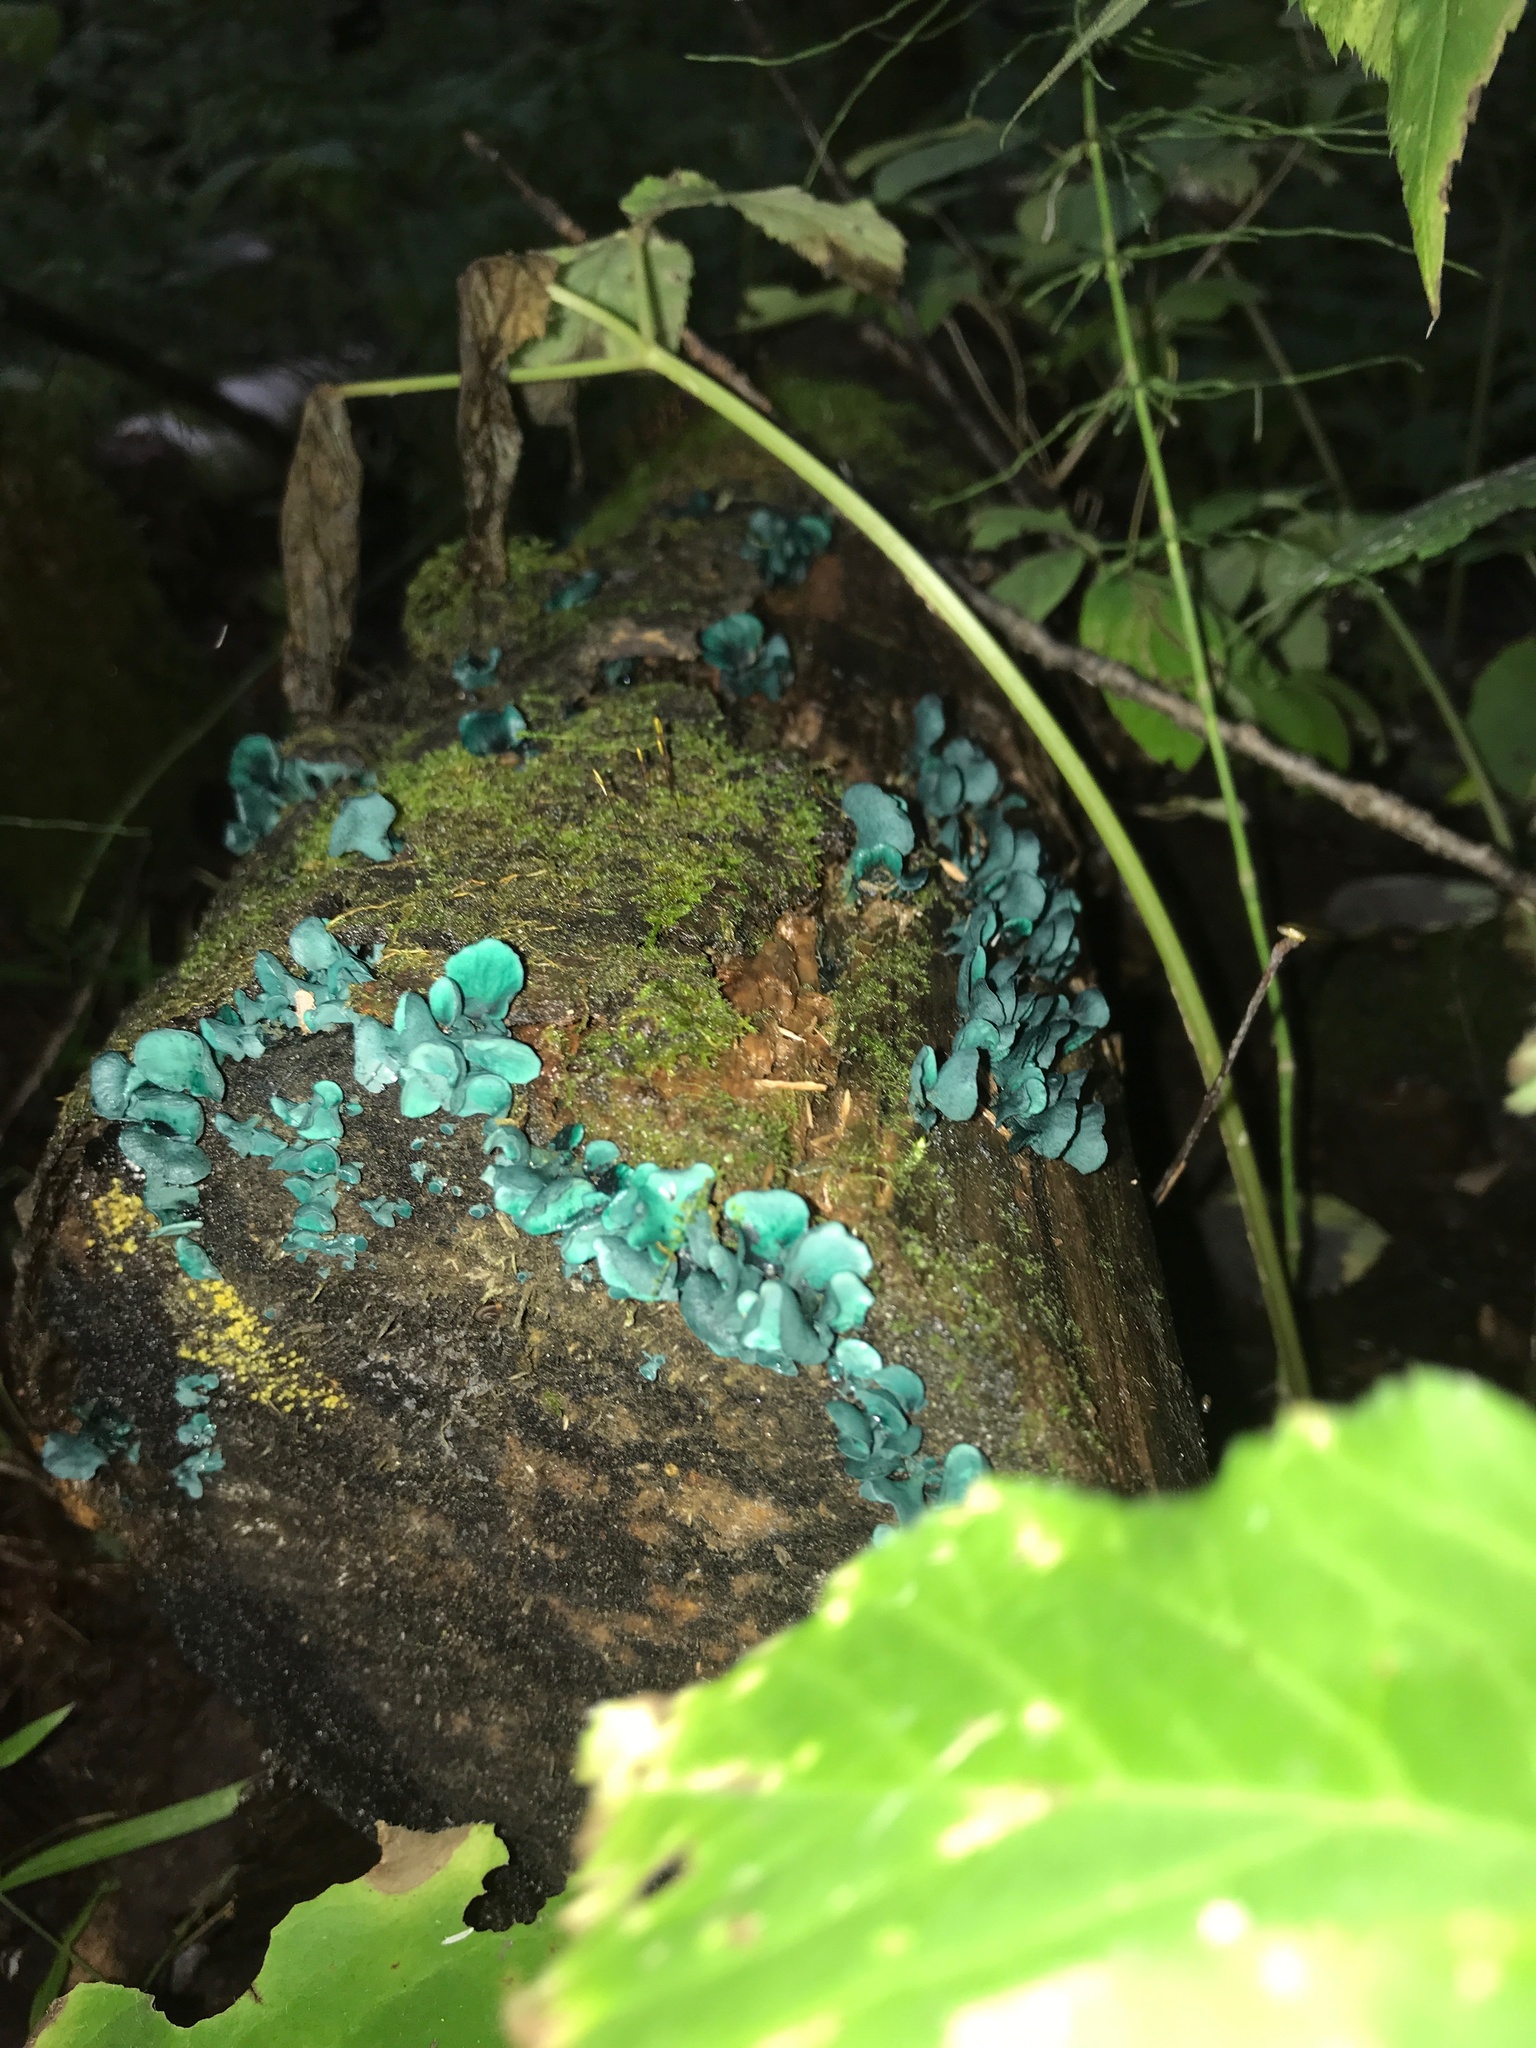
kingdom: Fungi
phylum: Ascomycota
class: Leotiomycetes
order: Helotiales
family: Chlorociboriaceae
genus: Chlorociboria
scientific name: Chlorociboria aeruginascens
